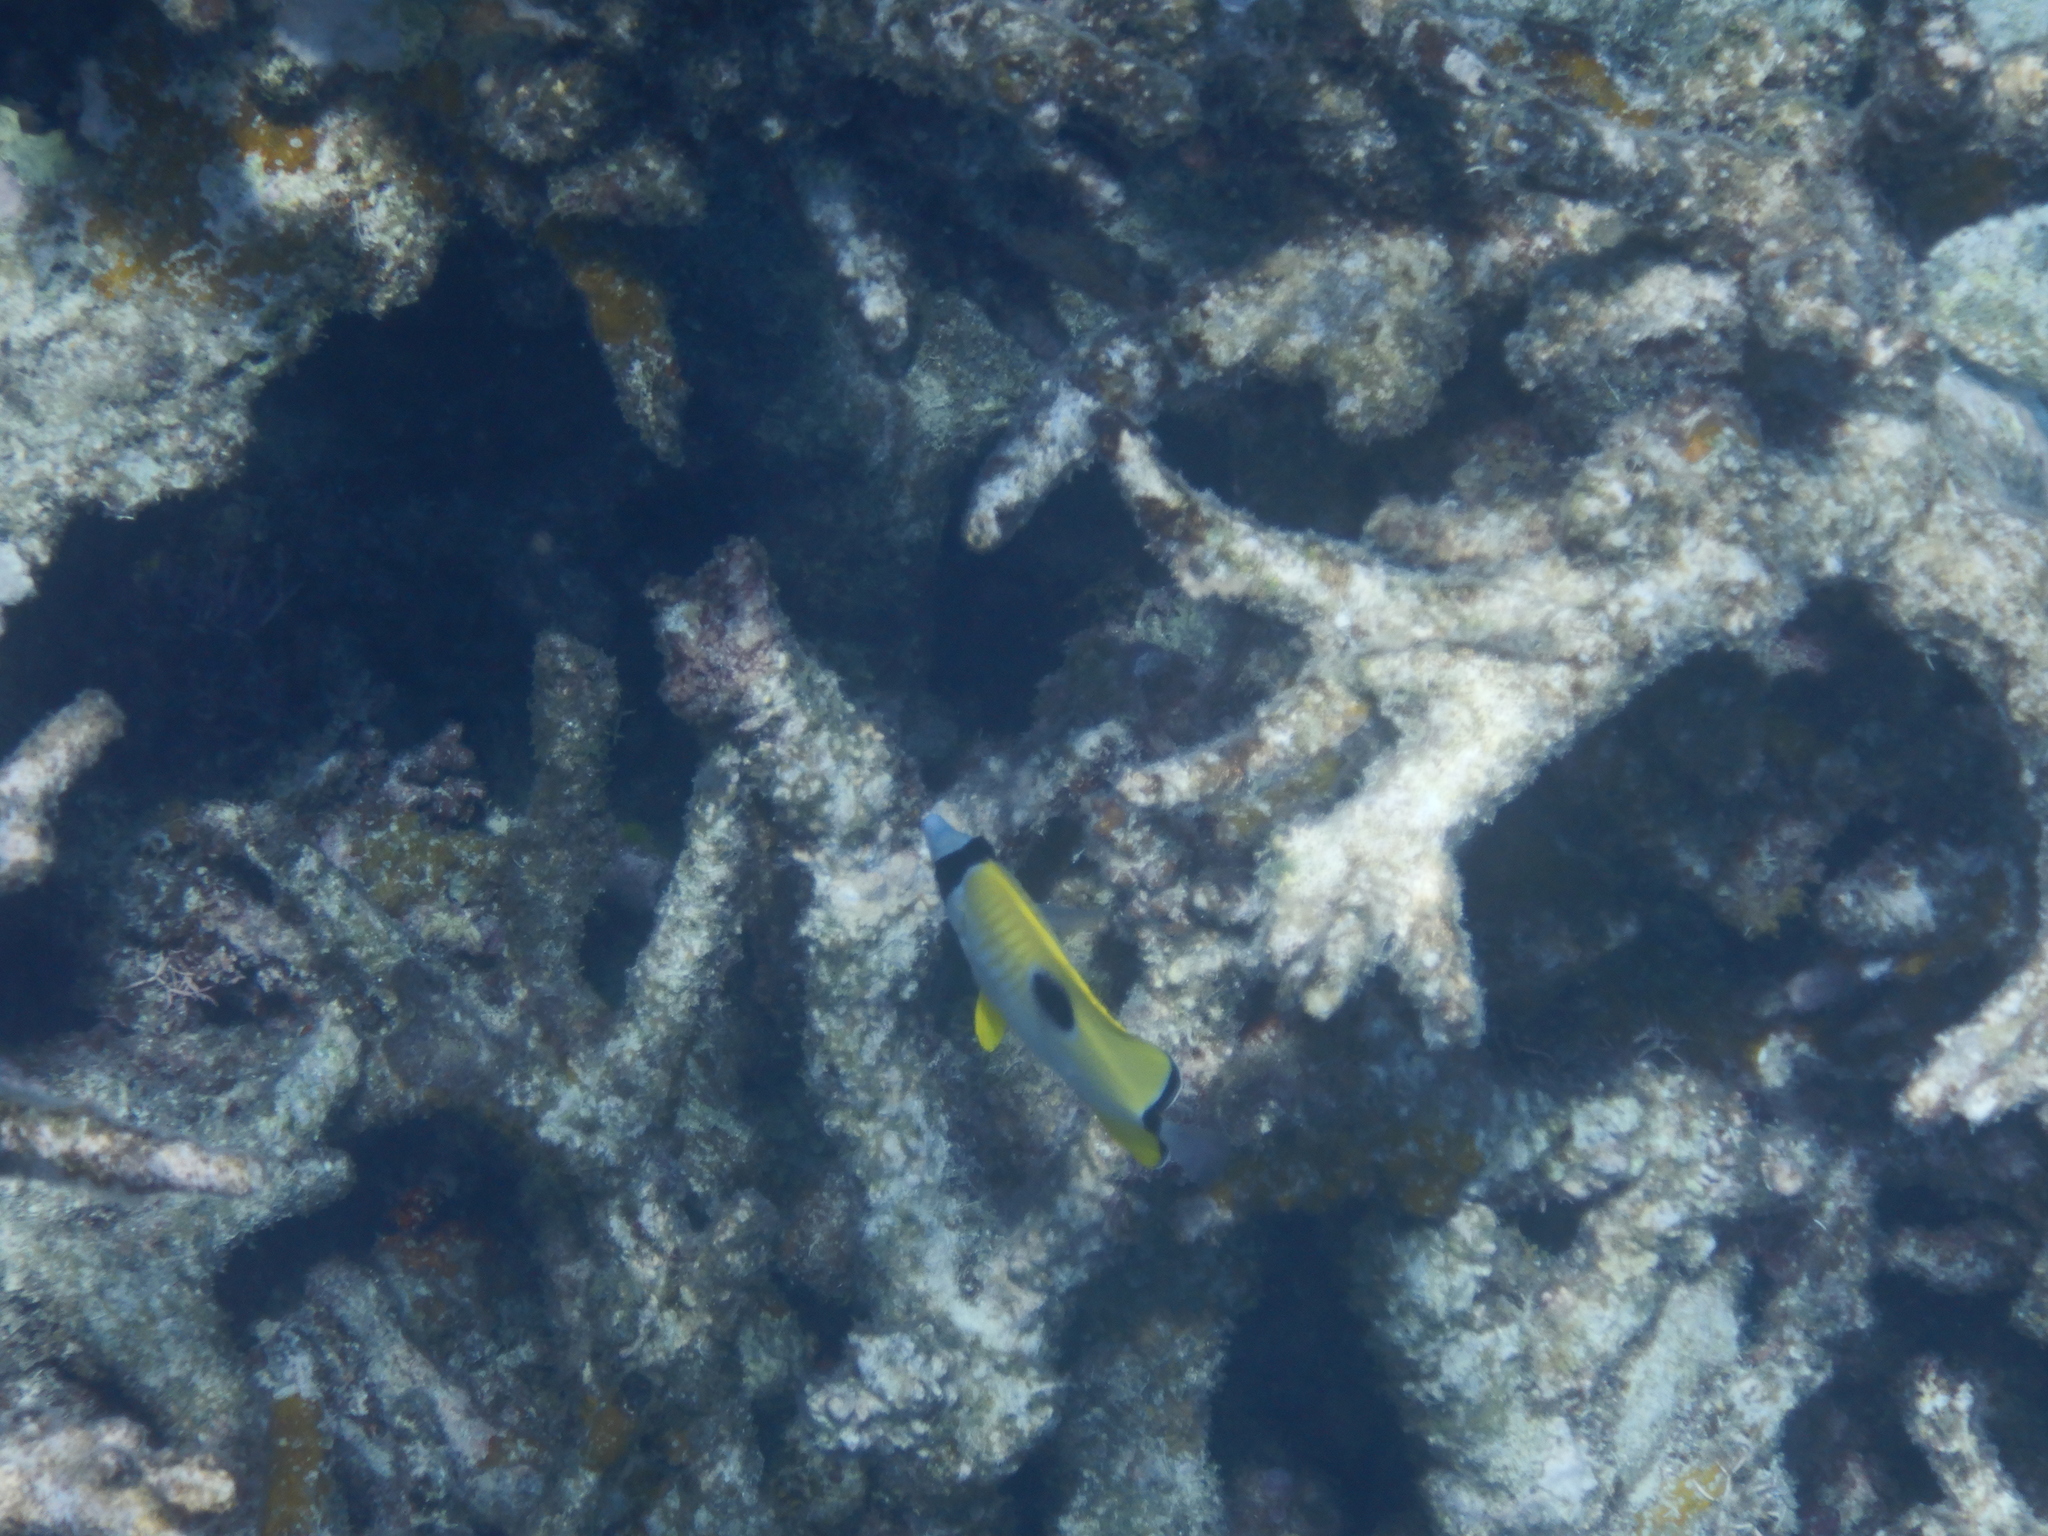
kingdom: Animalia
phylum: Chordata
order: Perciformes
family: Chaetodontidae
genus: Chaetodon
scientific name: Chaetodon unimaculatus
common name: Teardrop butterflyfish
